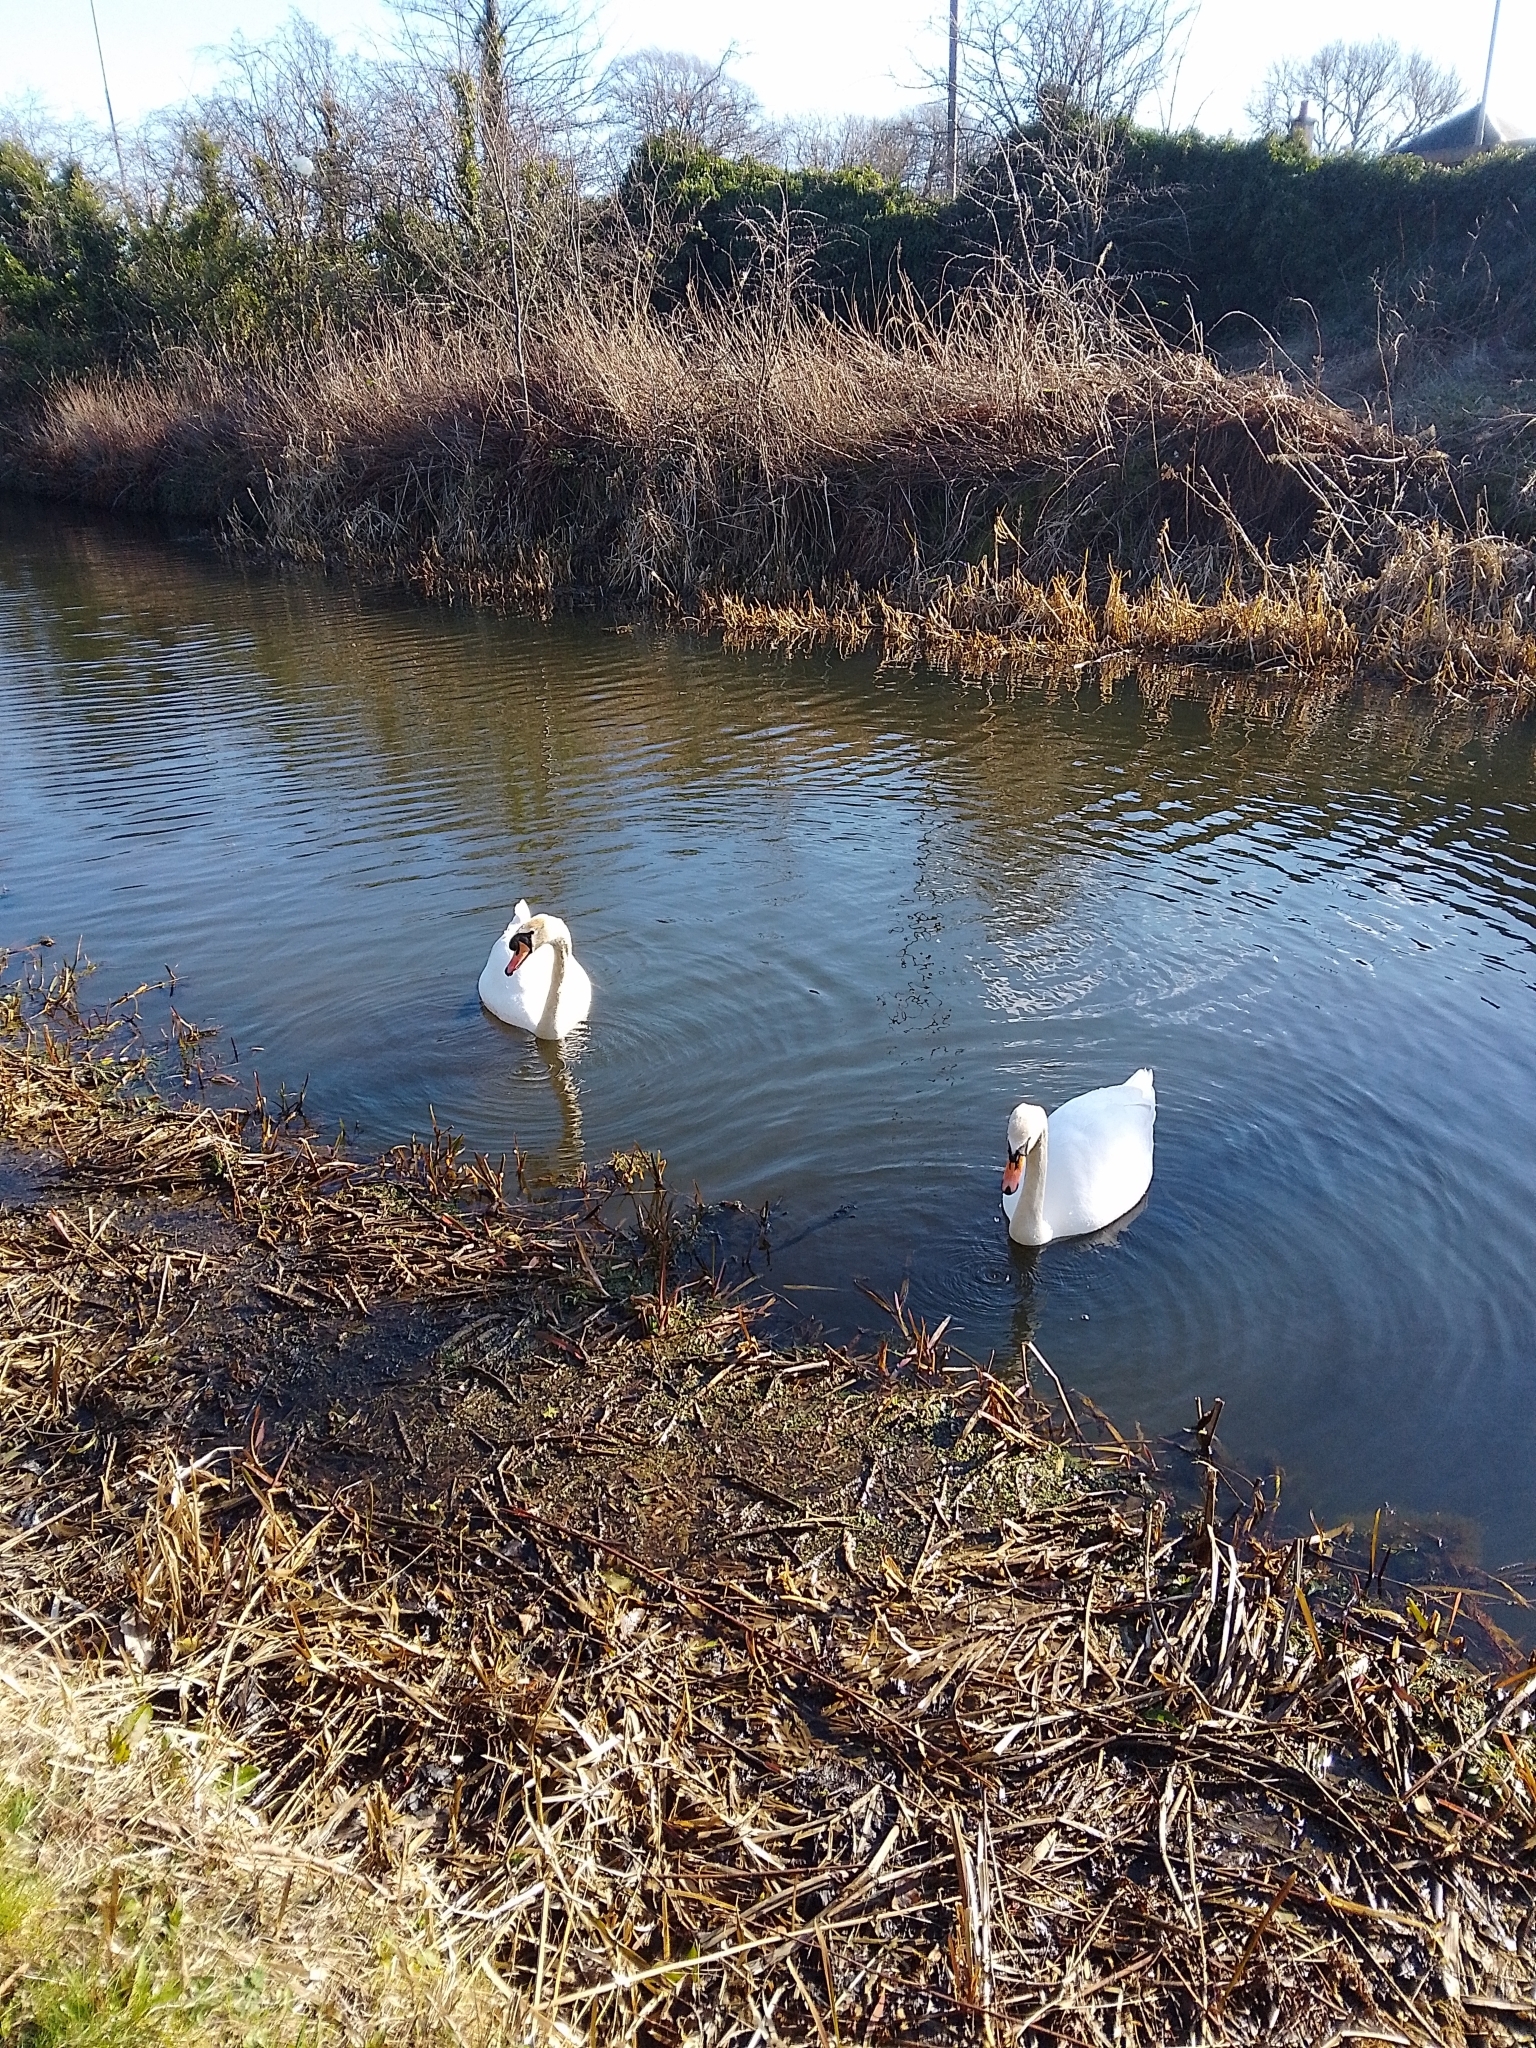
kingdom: Animalia
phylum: Chordata
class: Aves
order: Anseriformes
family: Anatidae
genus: Cygnus
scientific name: Cygnus olor
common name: Mute swan
